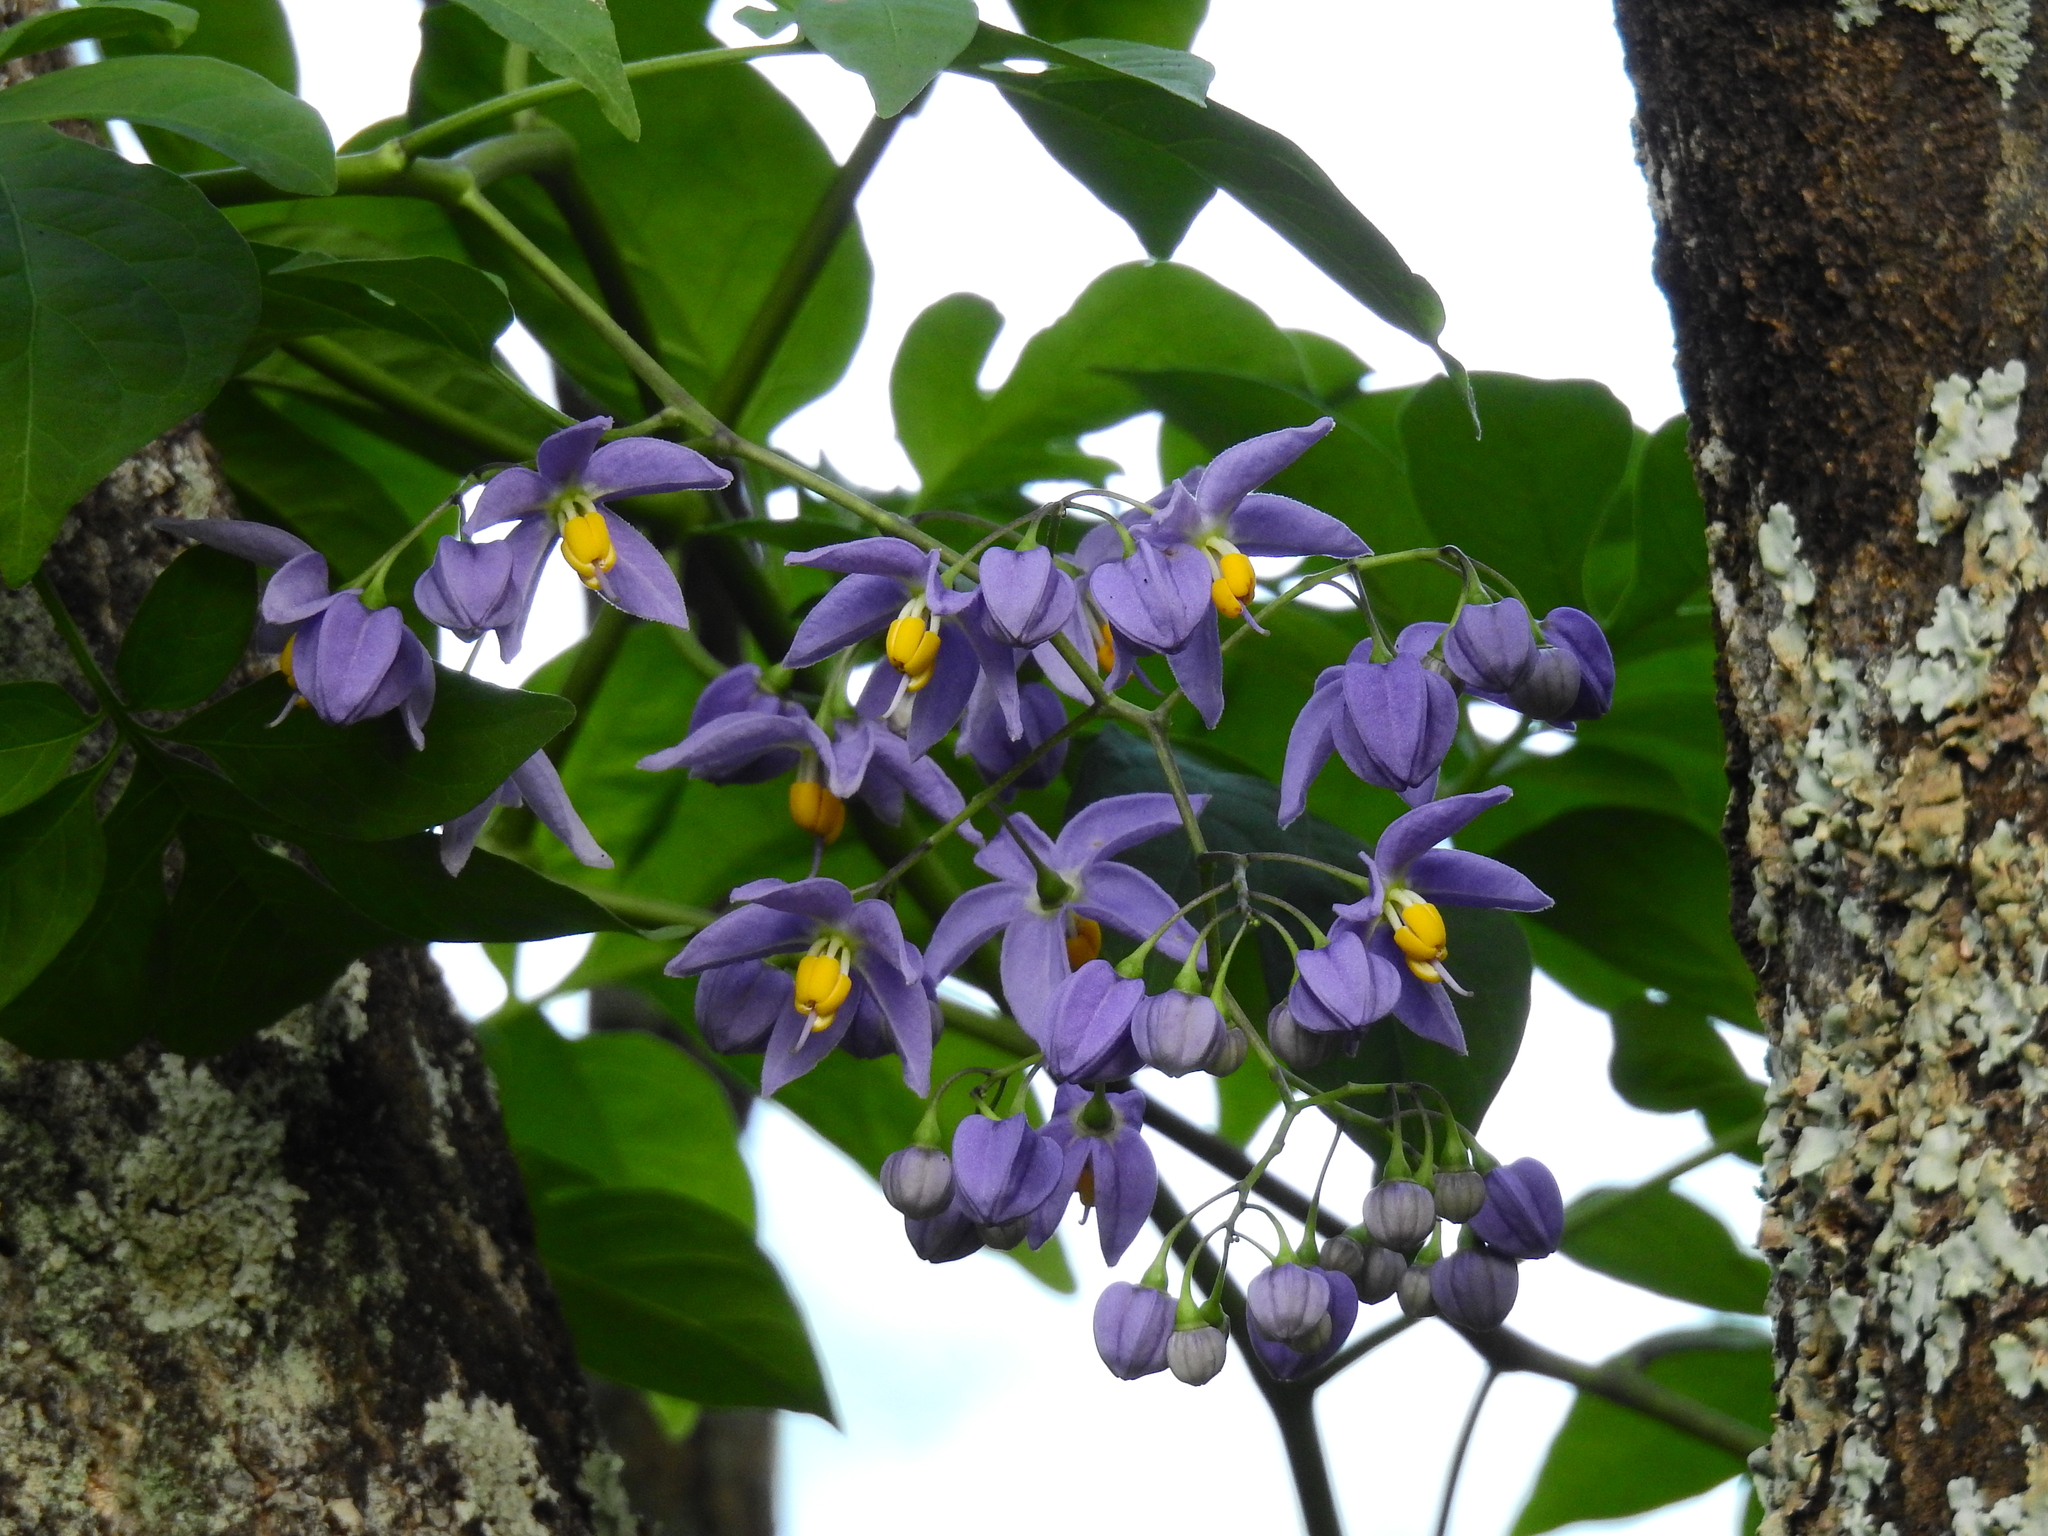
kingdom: Plantae
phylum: Tracheophyta
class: Magnoliopsida
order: Solanales
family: Solanaceae
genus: Solanum
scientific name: Solanum seaforthianum
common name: Brazilian nightshade
